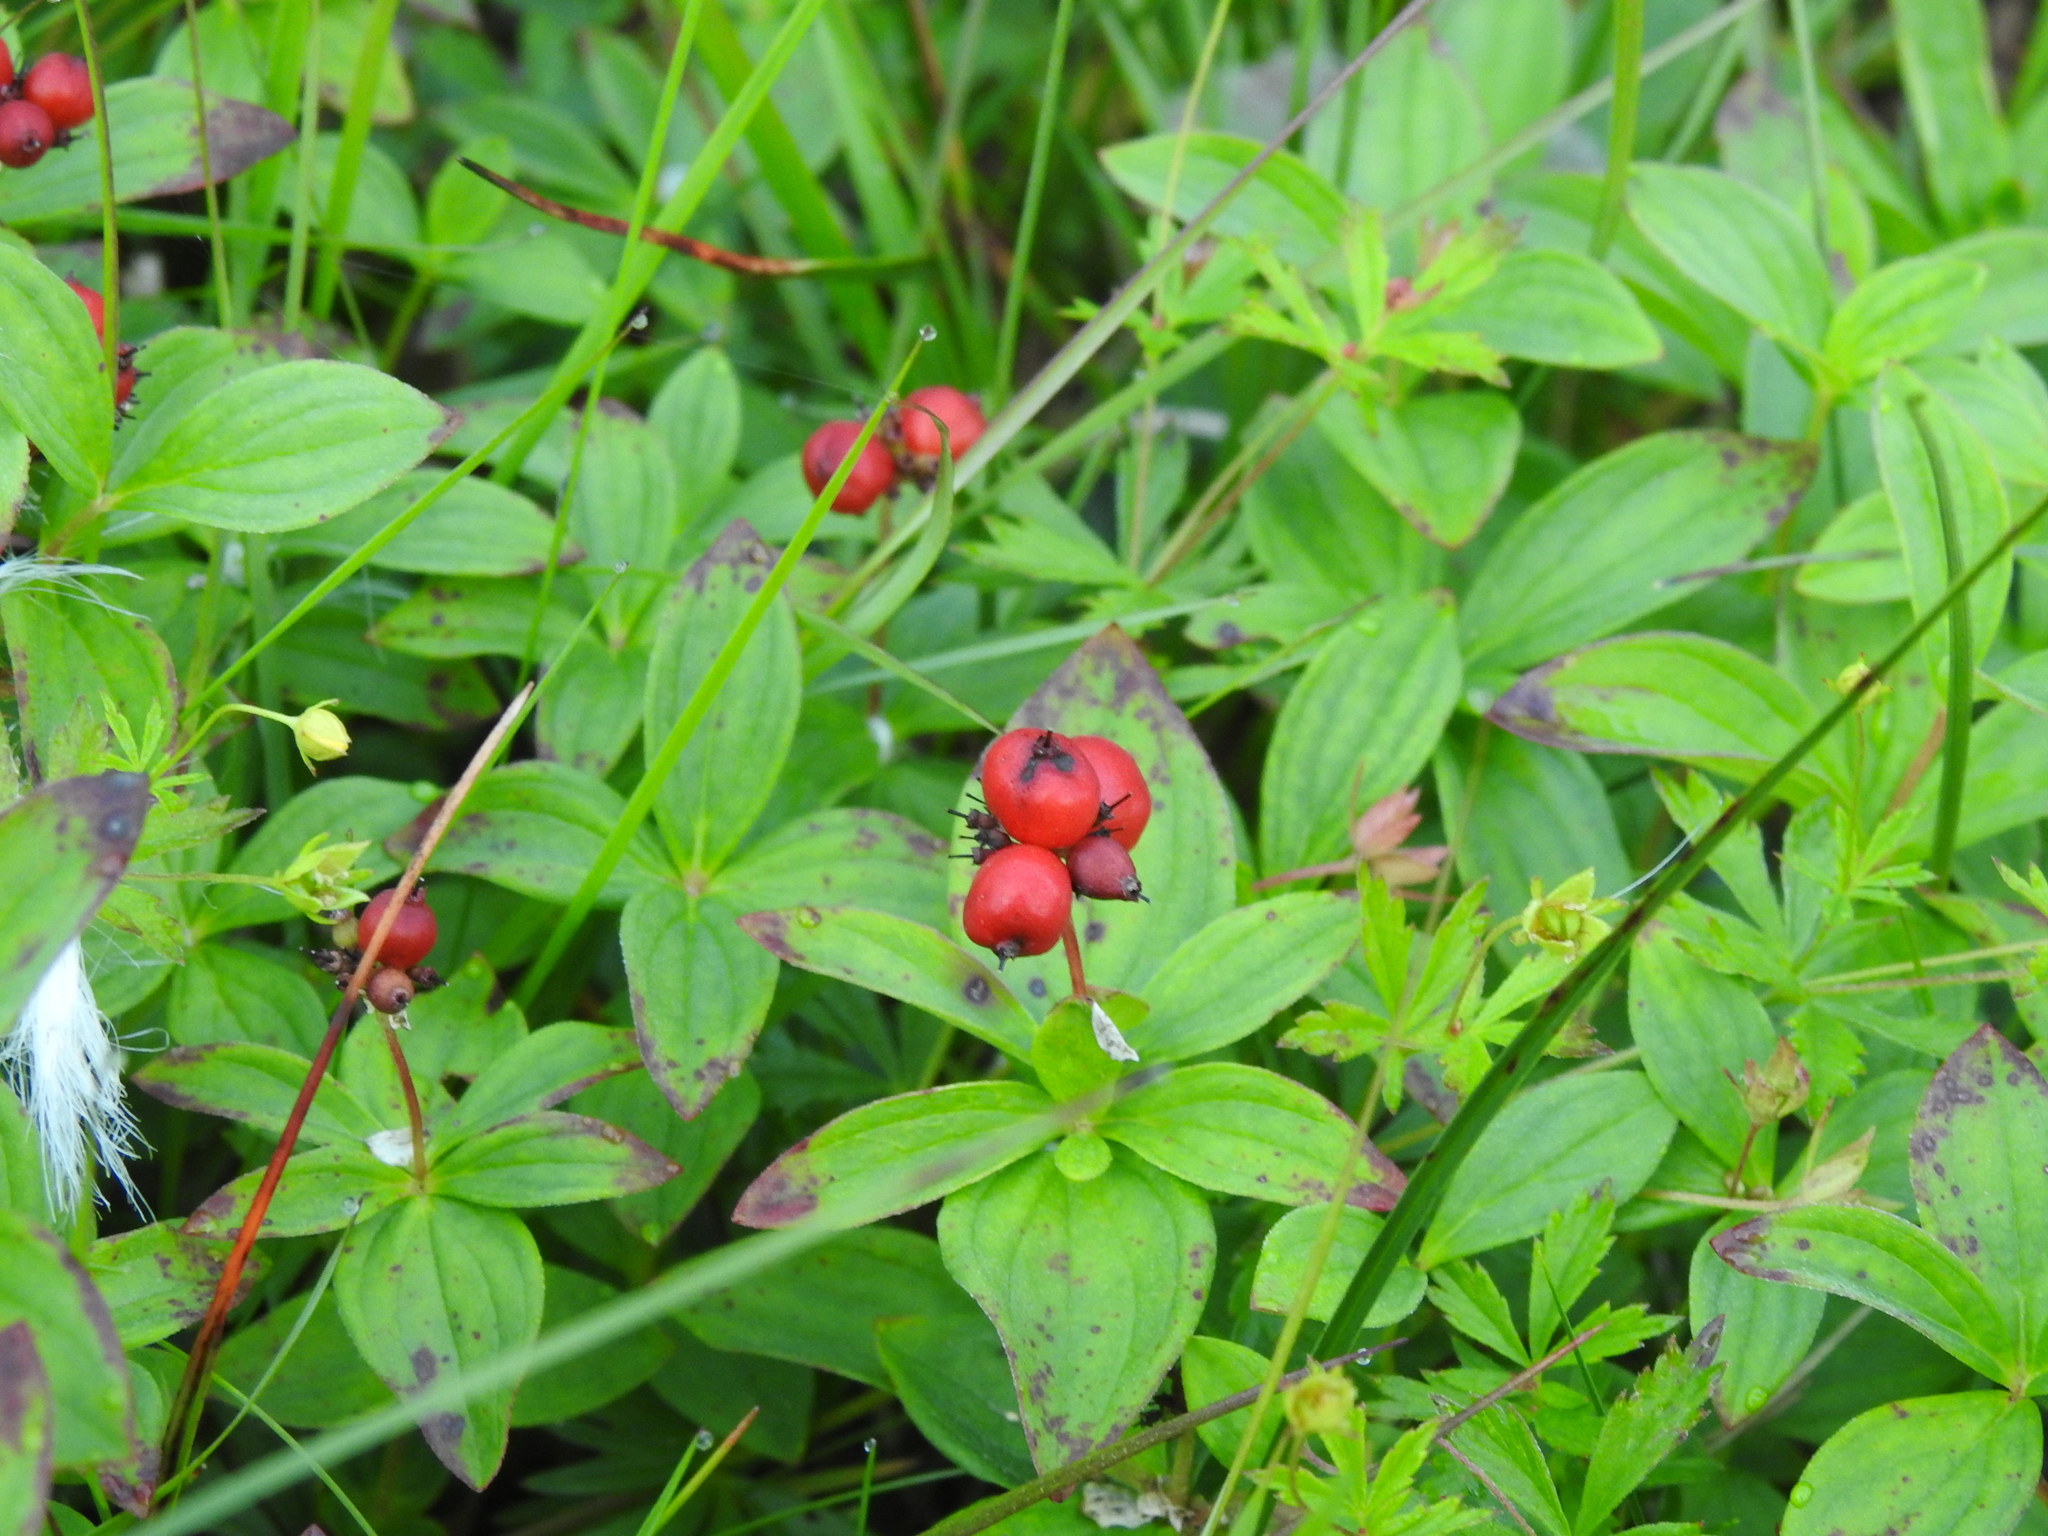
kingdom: Plantae
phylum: Tracheophyta
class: Magnoliopsida
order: Cornales
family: Cornaceae
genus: Cornus
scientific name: Cornus suecica
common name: Dwarf cornel
